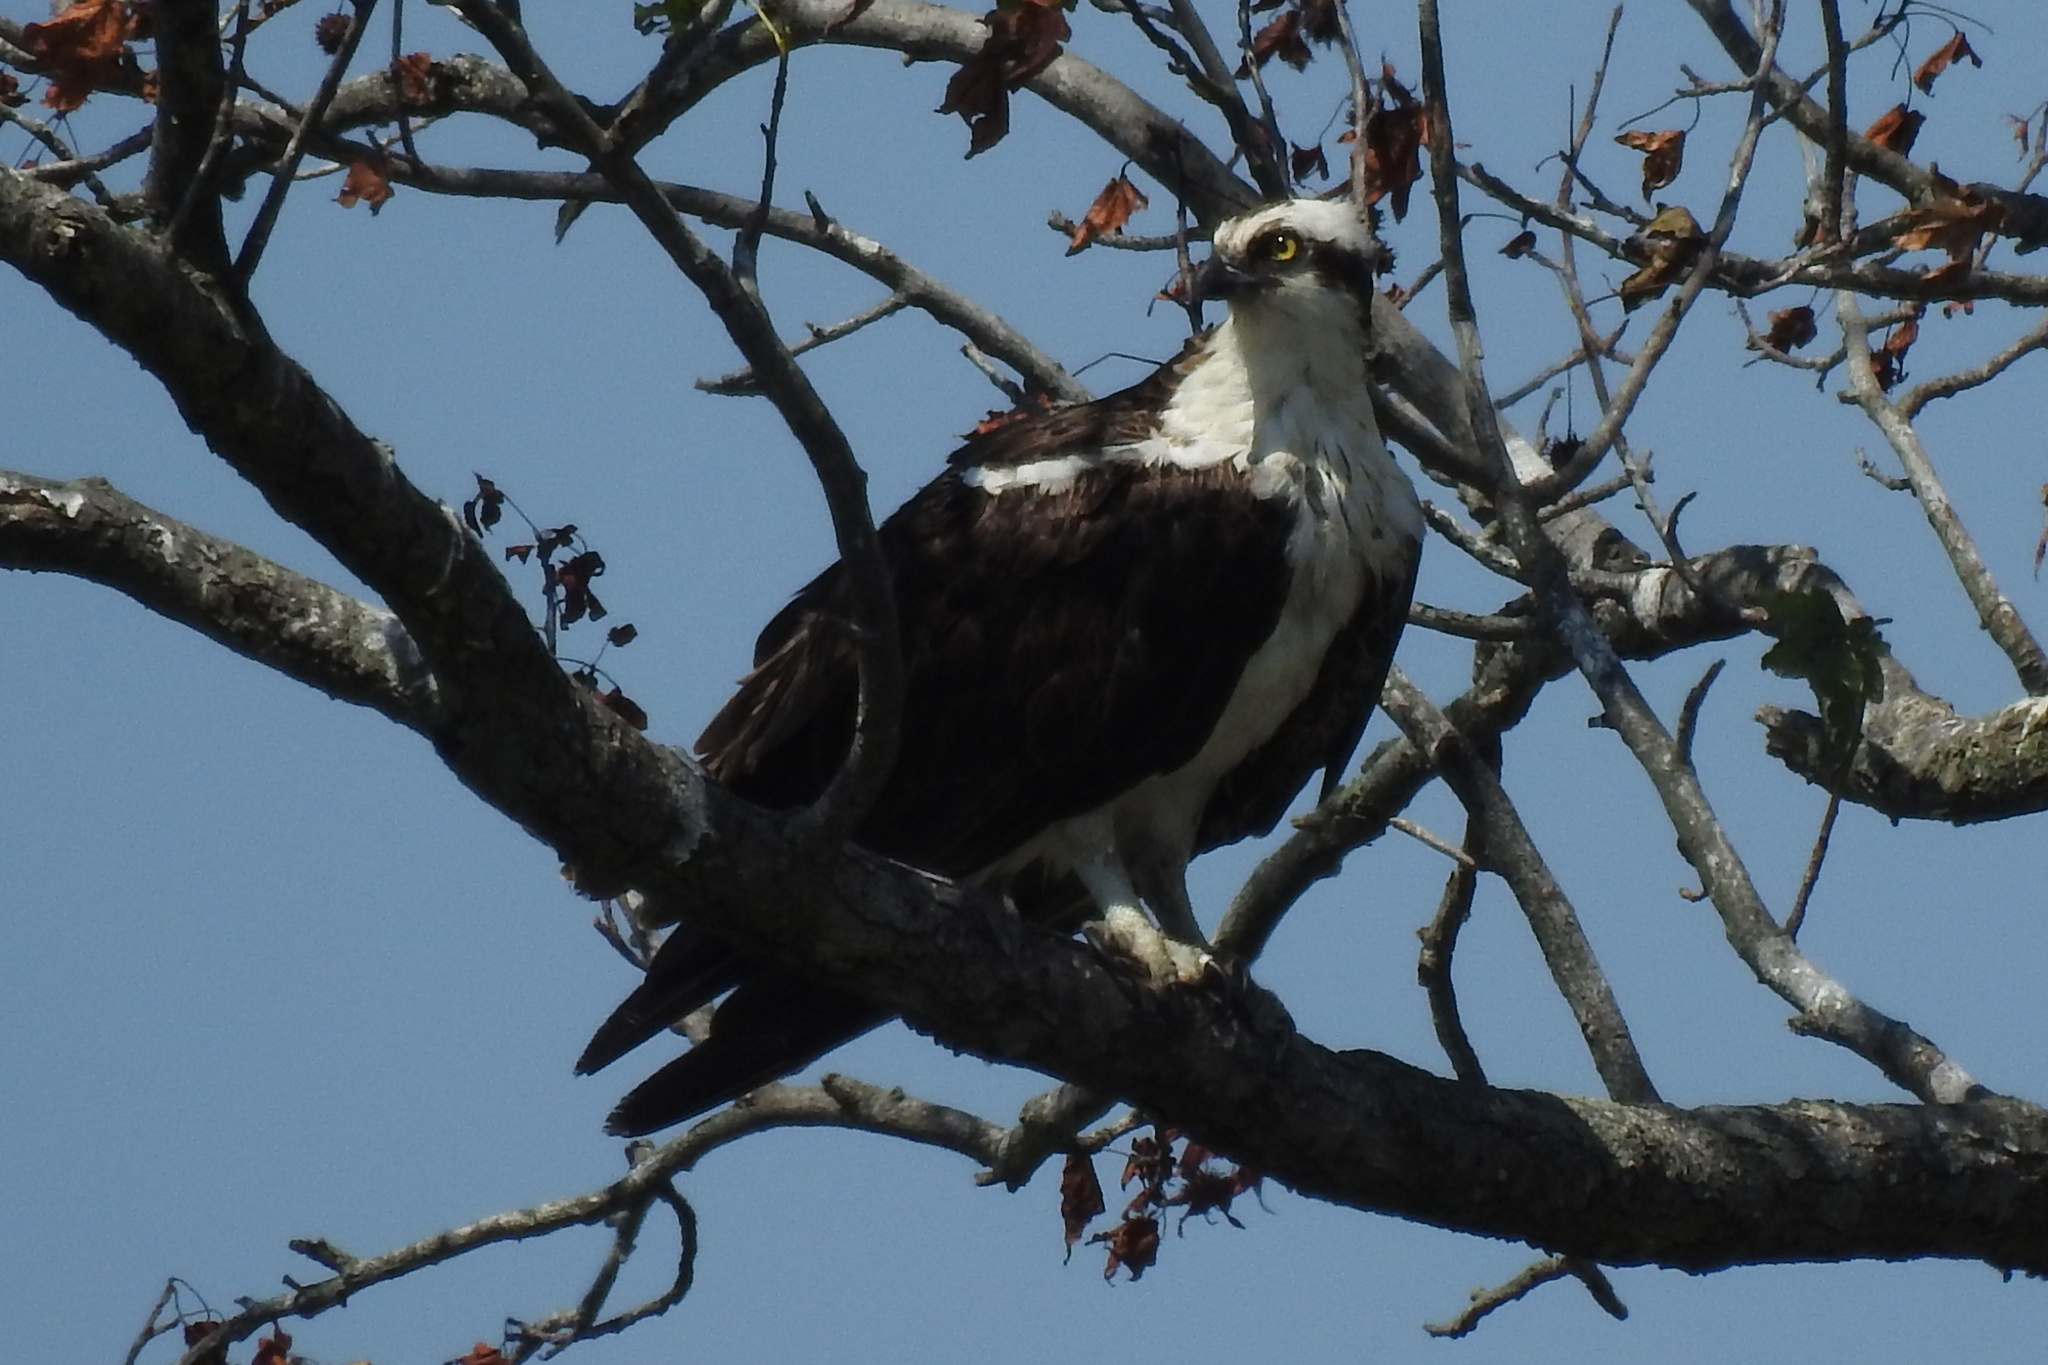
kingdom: Animalia
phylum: Chordata
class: Aves
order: Accipitriformes
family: Pandionidae
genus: Pandion
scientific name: Pandion haliaetus
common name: Osprey
